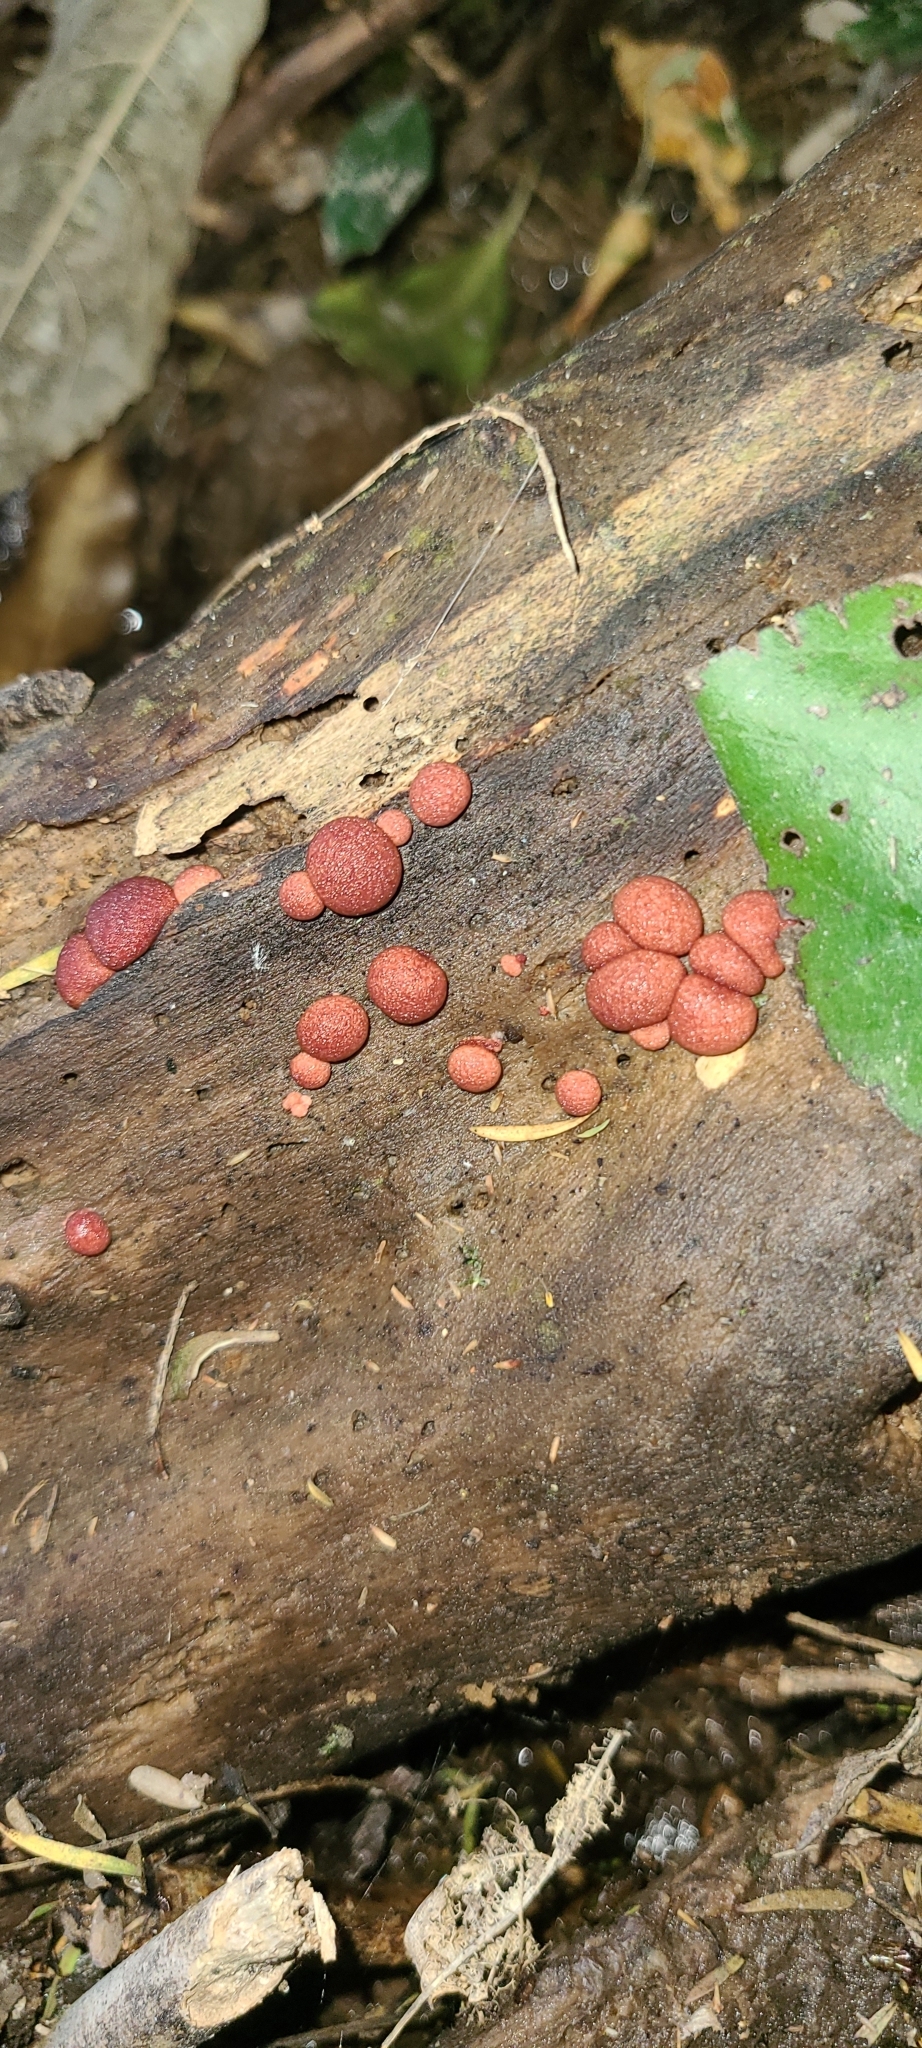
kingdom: Protozoa
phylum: Mycetozoa
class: Myxomycetes
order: Cribrariales
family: Tubiferaceae
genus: Lycogala
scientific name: Lycogala epidendrum
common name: Wolf's milk
